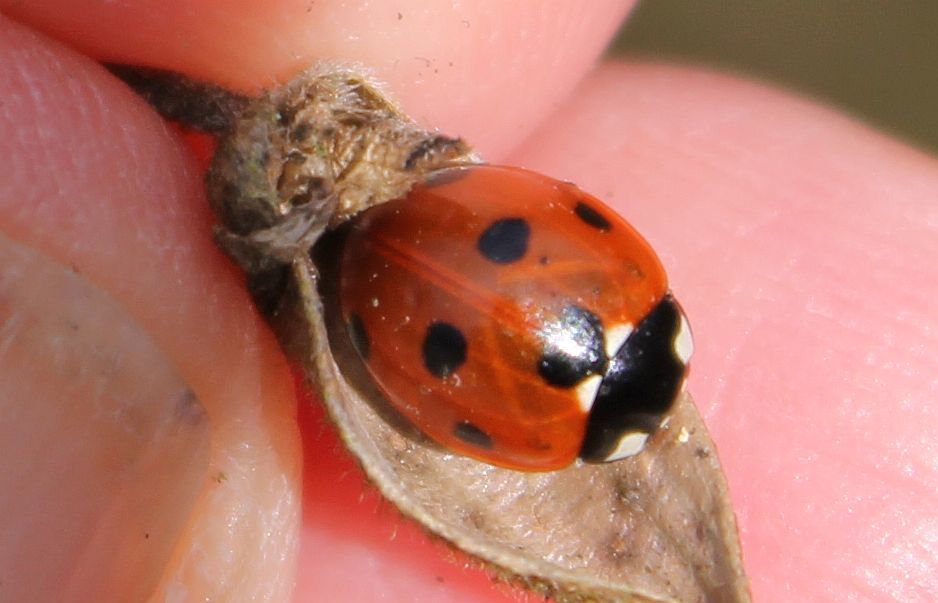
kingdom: Animalia
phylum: Arthropoda
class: Insecta
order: Coleoptera
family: Coccinellidae
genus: Coccinella
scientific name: Coccinella septempunctata
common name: Sevenspotted lady beetle
